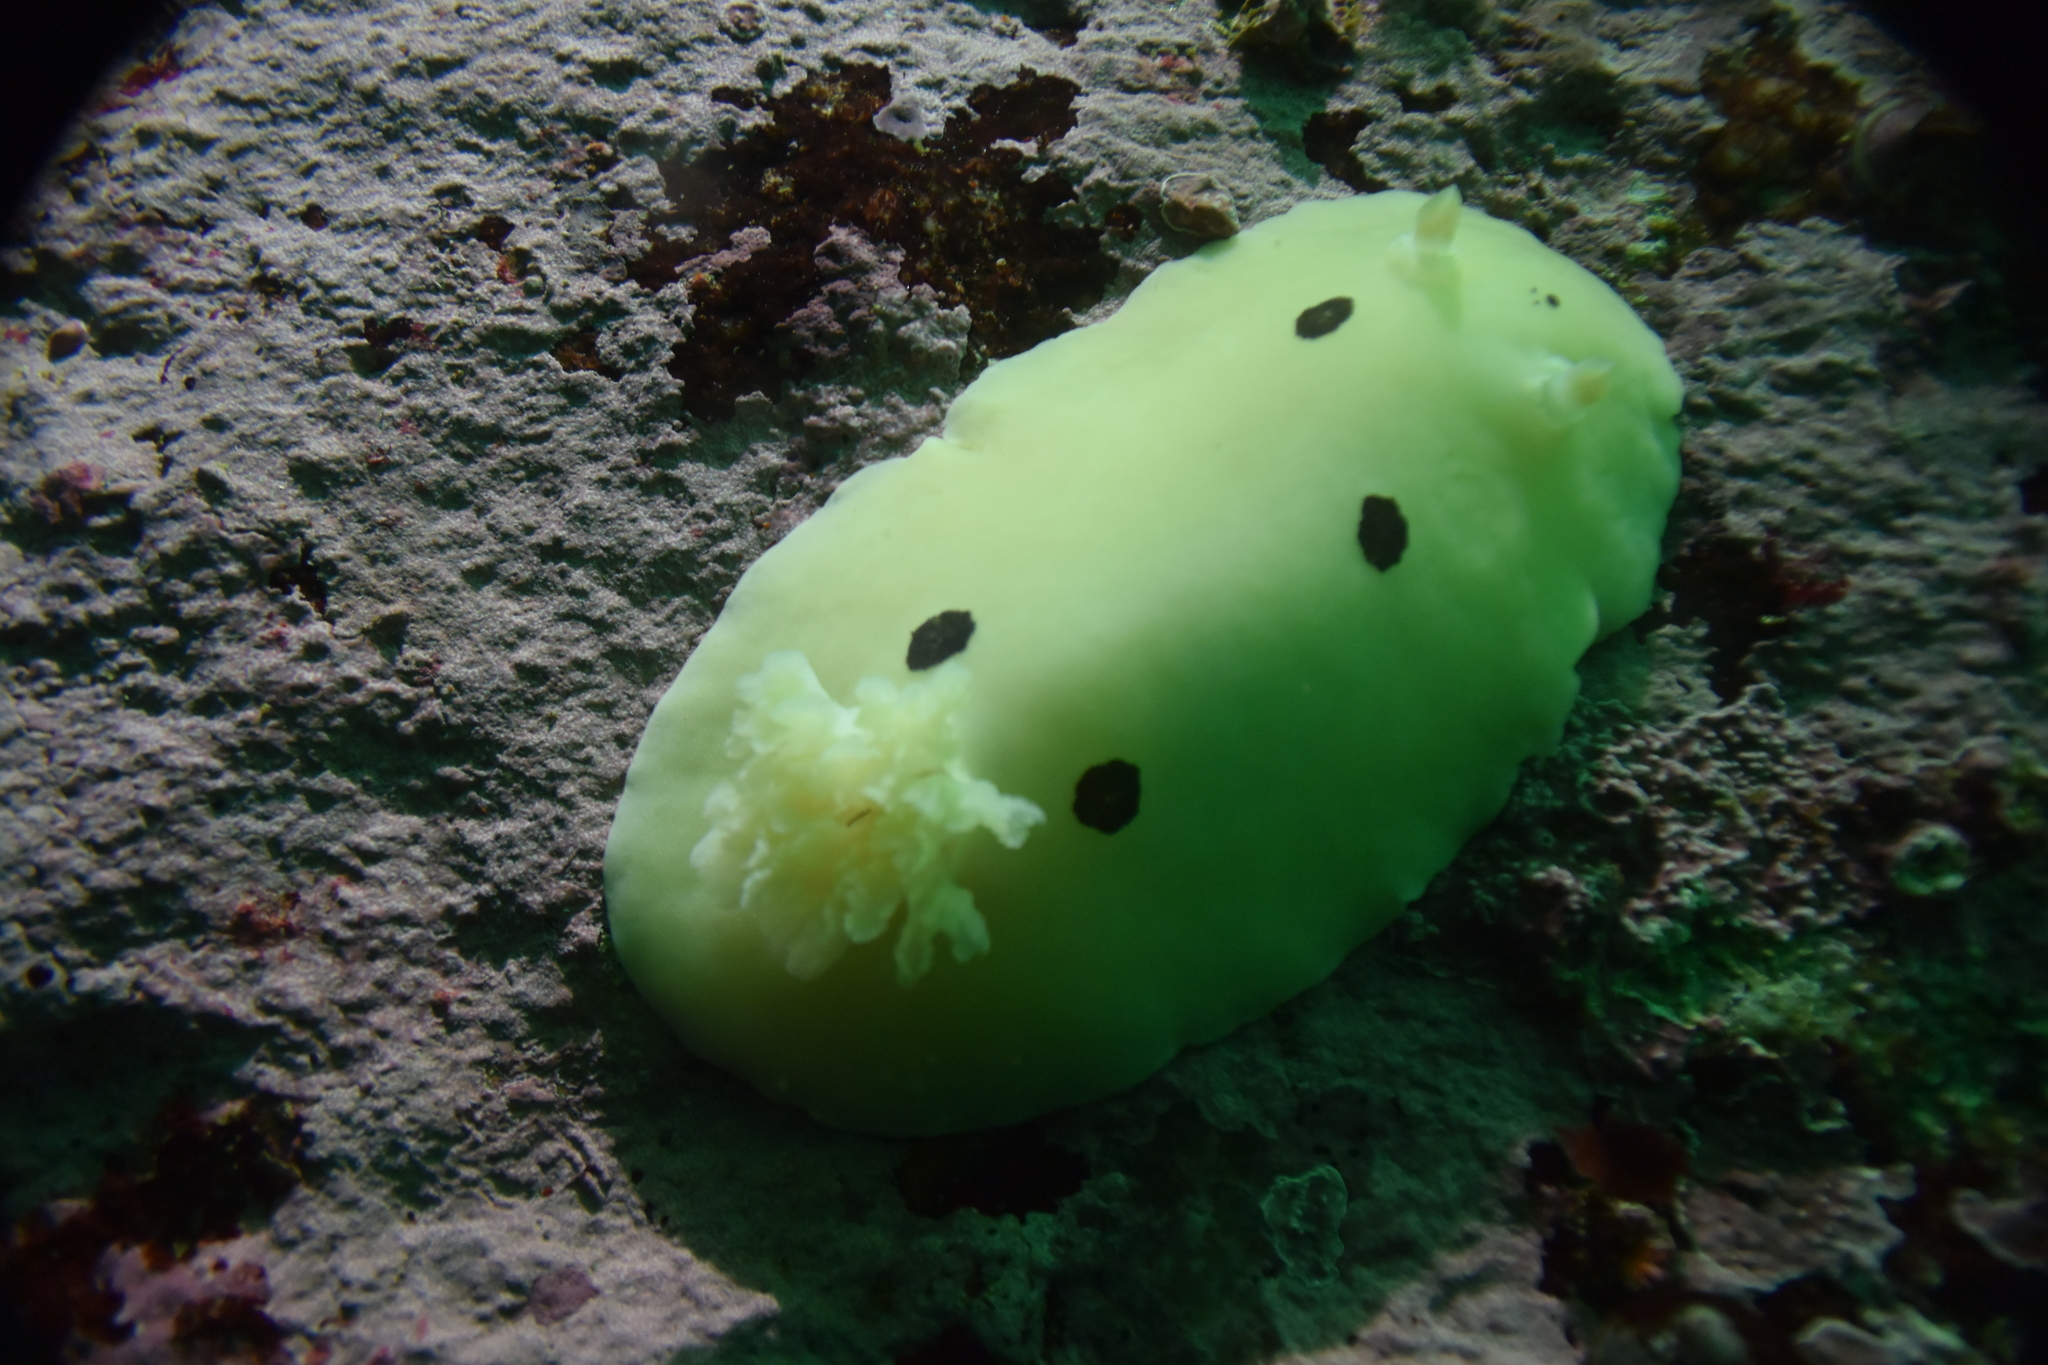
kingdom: Animalia
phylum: Mollusca
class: Gastropoda
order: Nudibranchia
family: Discodorididae
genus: Diaulula
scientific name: Diaulula sandiegensis
